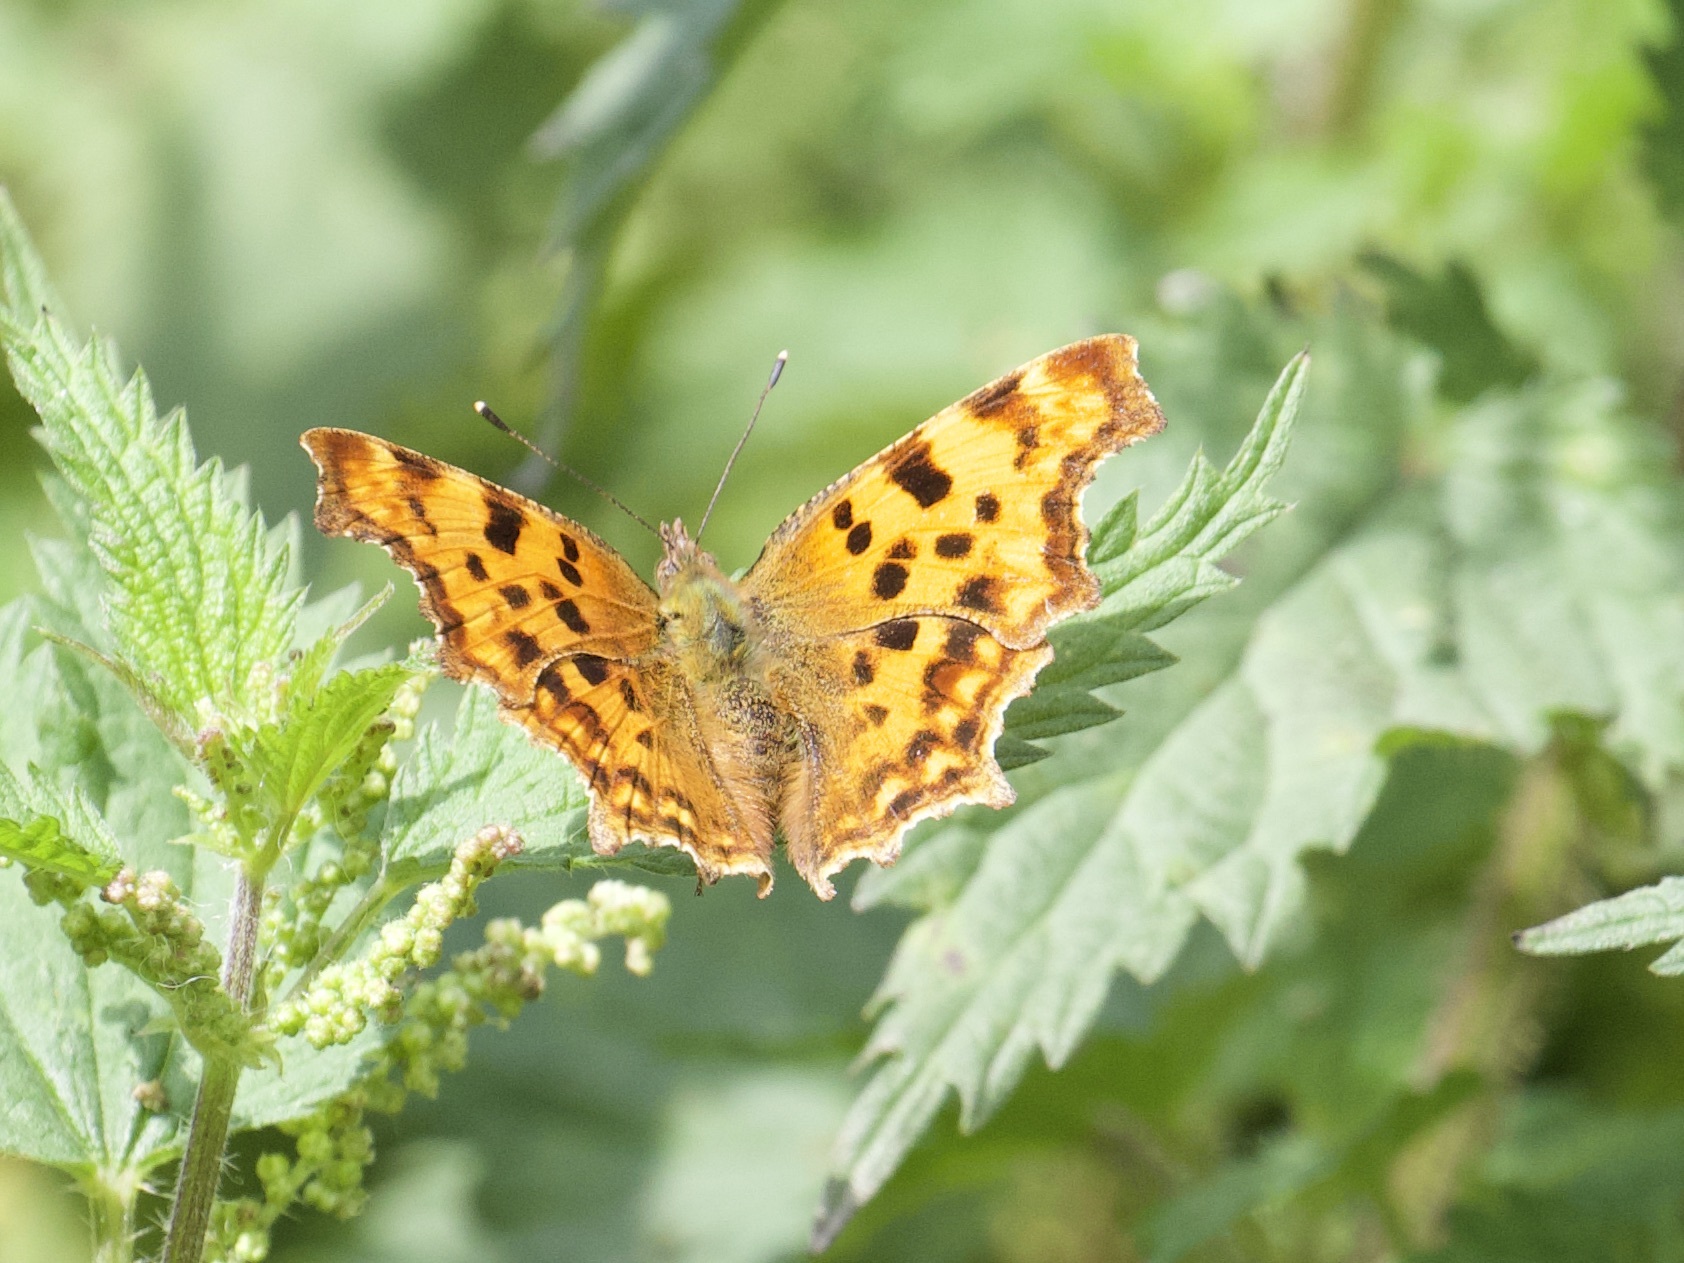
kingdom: Animalia
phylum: Arthropoda
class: Insecta
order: Lepidoptera
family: Nymphalidae
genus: Polygonia
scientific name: Polygonia c-album
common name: Comma
